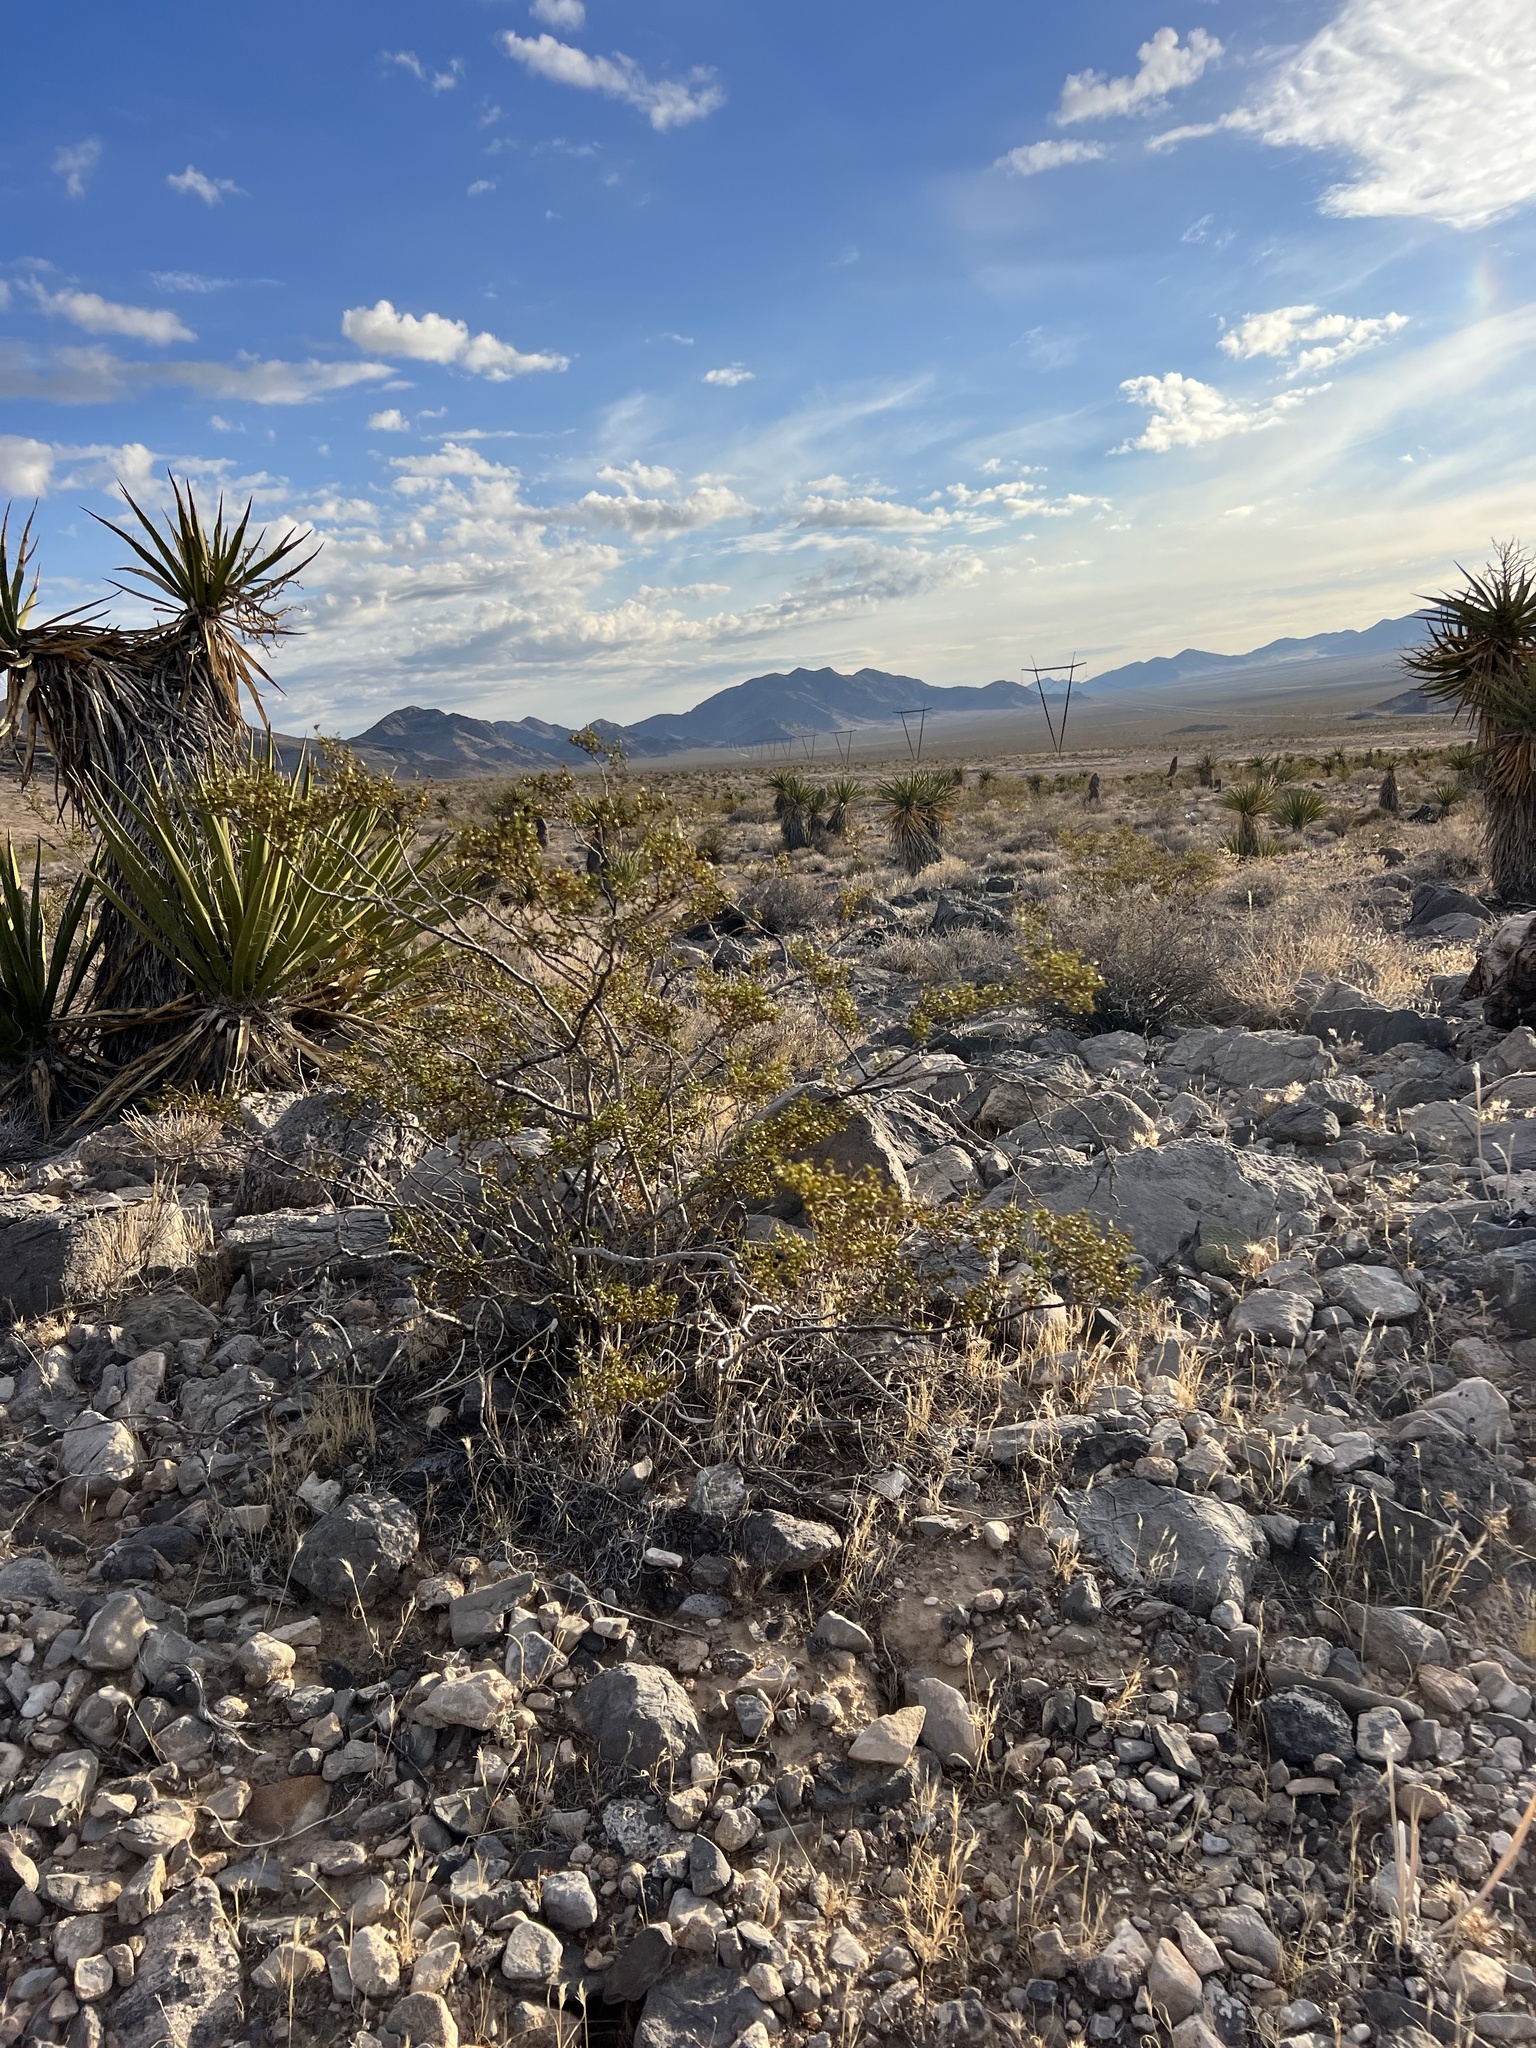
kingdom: Plantae
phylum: Tracheophyta
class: Magnoliopsida
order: Zygophyllales
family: Zygophyllaceae
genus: Larrea
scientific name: Larrea tridentata
